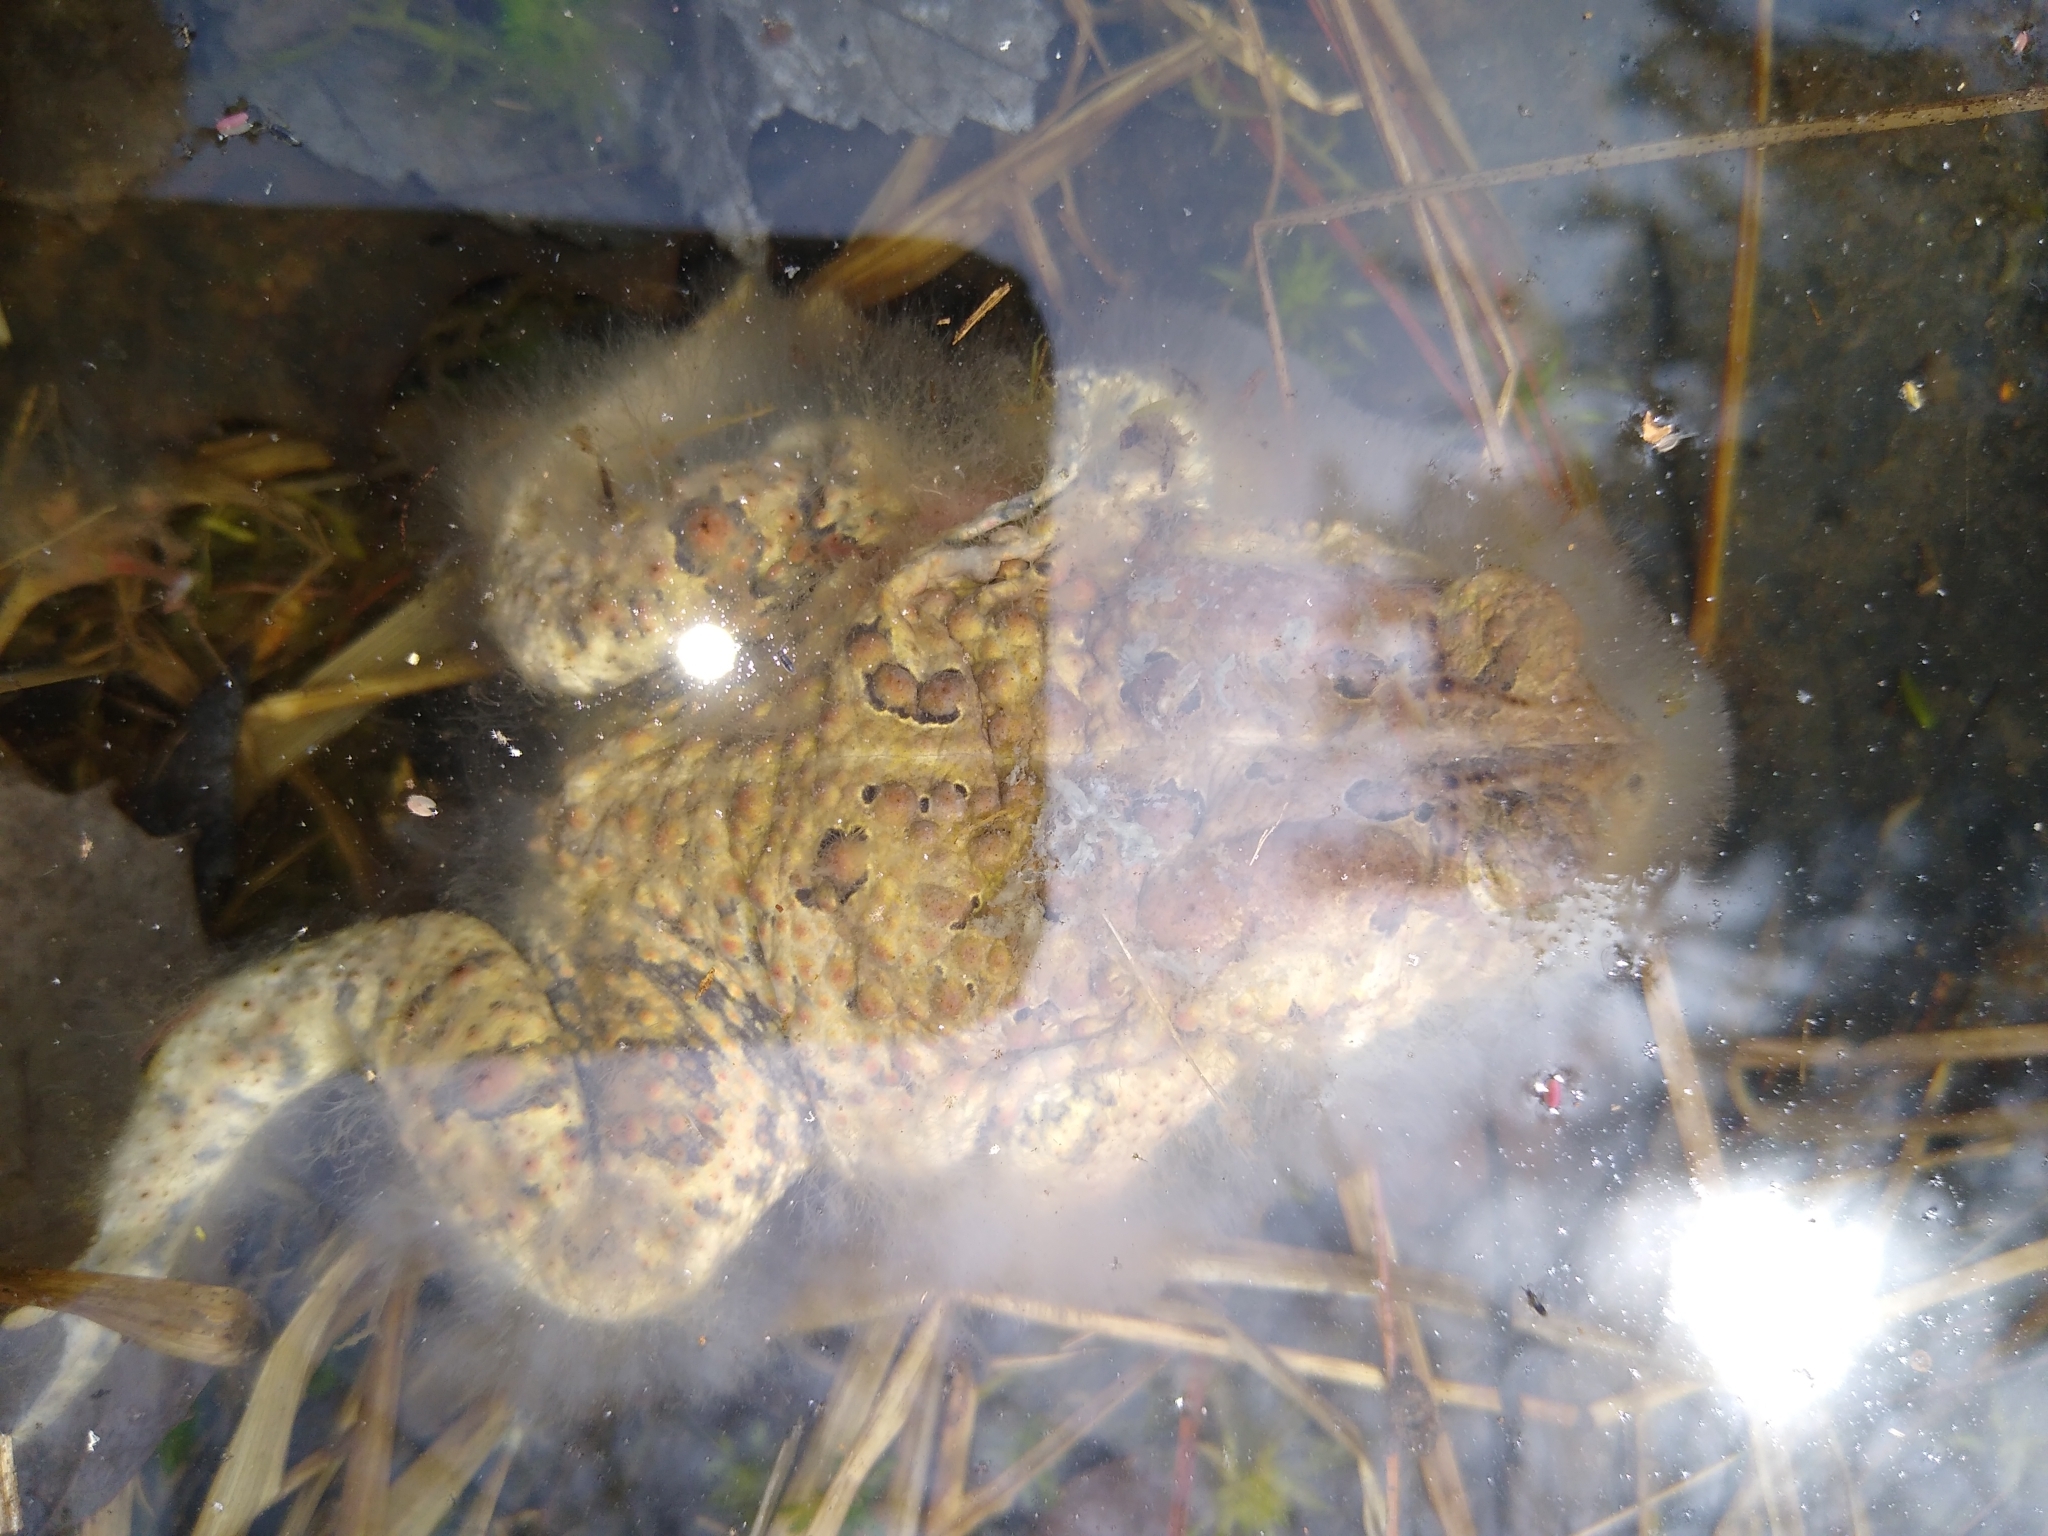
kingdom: Animalia
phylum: Chordata
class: Amphibia
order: Anura
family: Bufonidae
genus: Anaxyrus
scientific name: Anaxyrus americanus
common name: American toad
